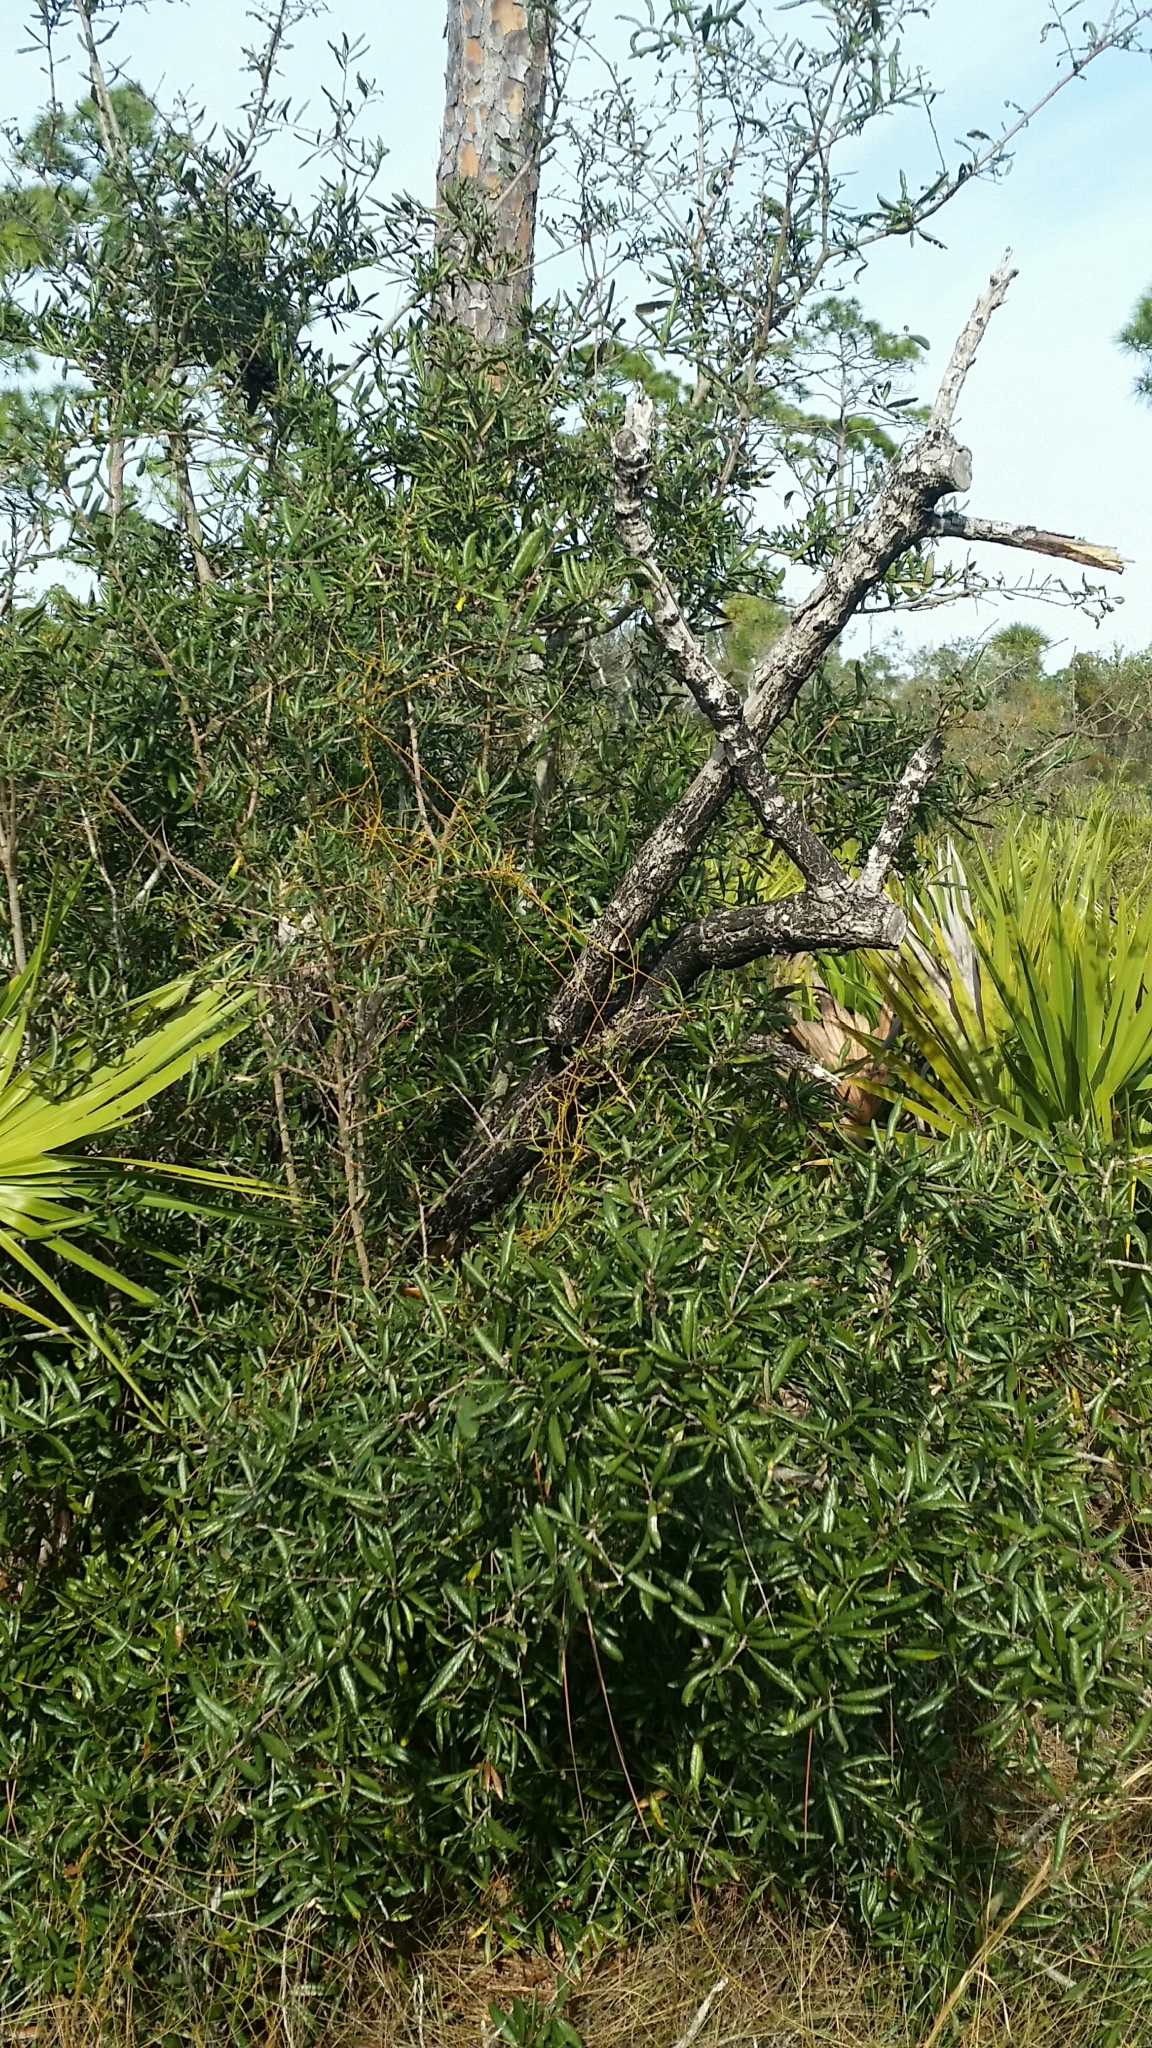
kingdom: Plantae
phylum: Tracheophyta
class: Magnoliopsida
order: Fagales
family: Fagaceae
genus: Quercus
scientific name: Quercus geminata
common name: Sand live oak
